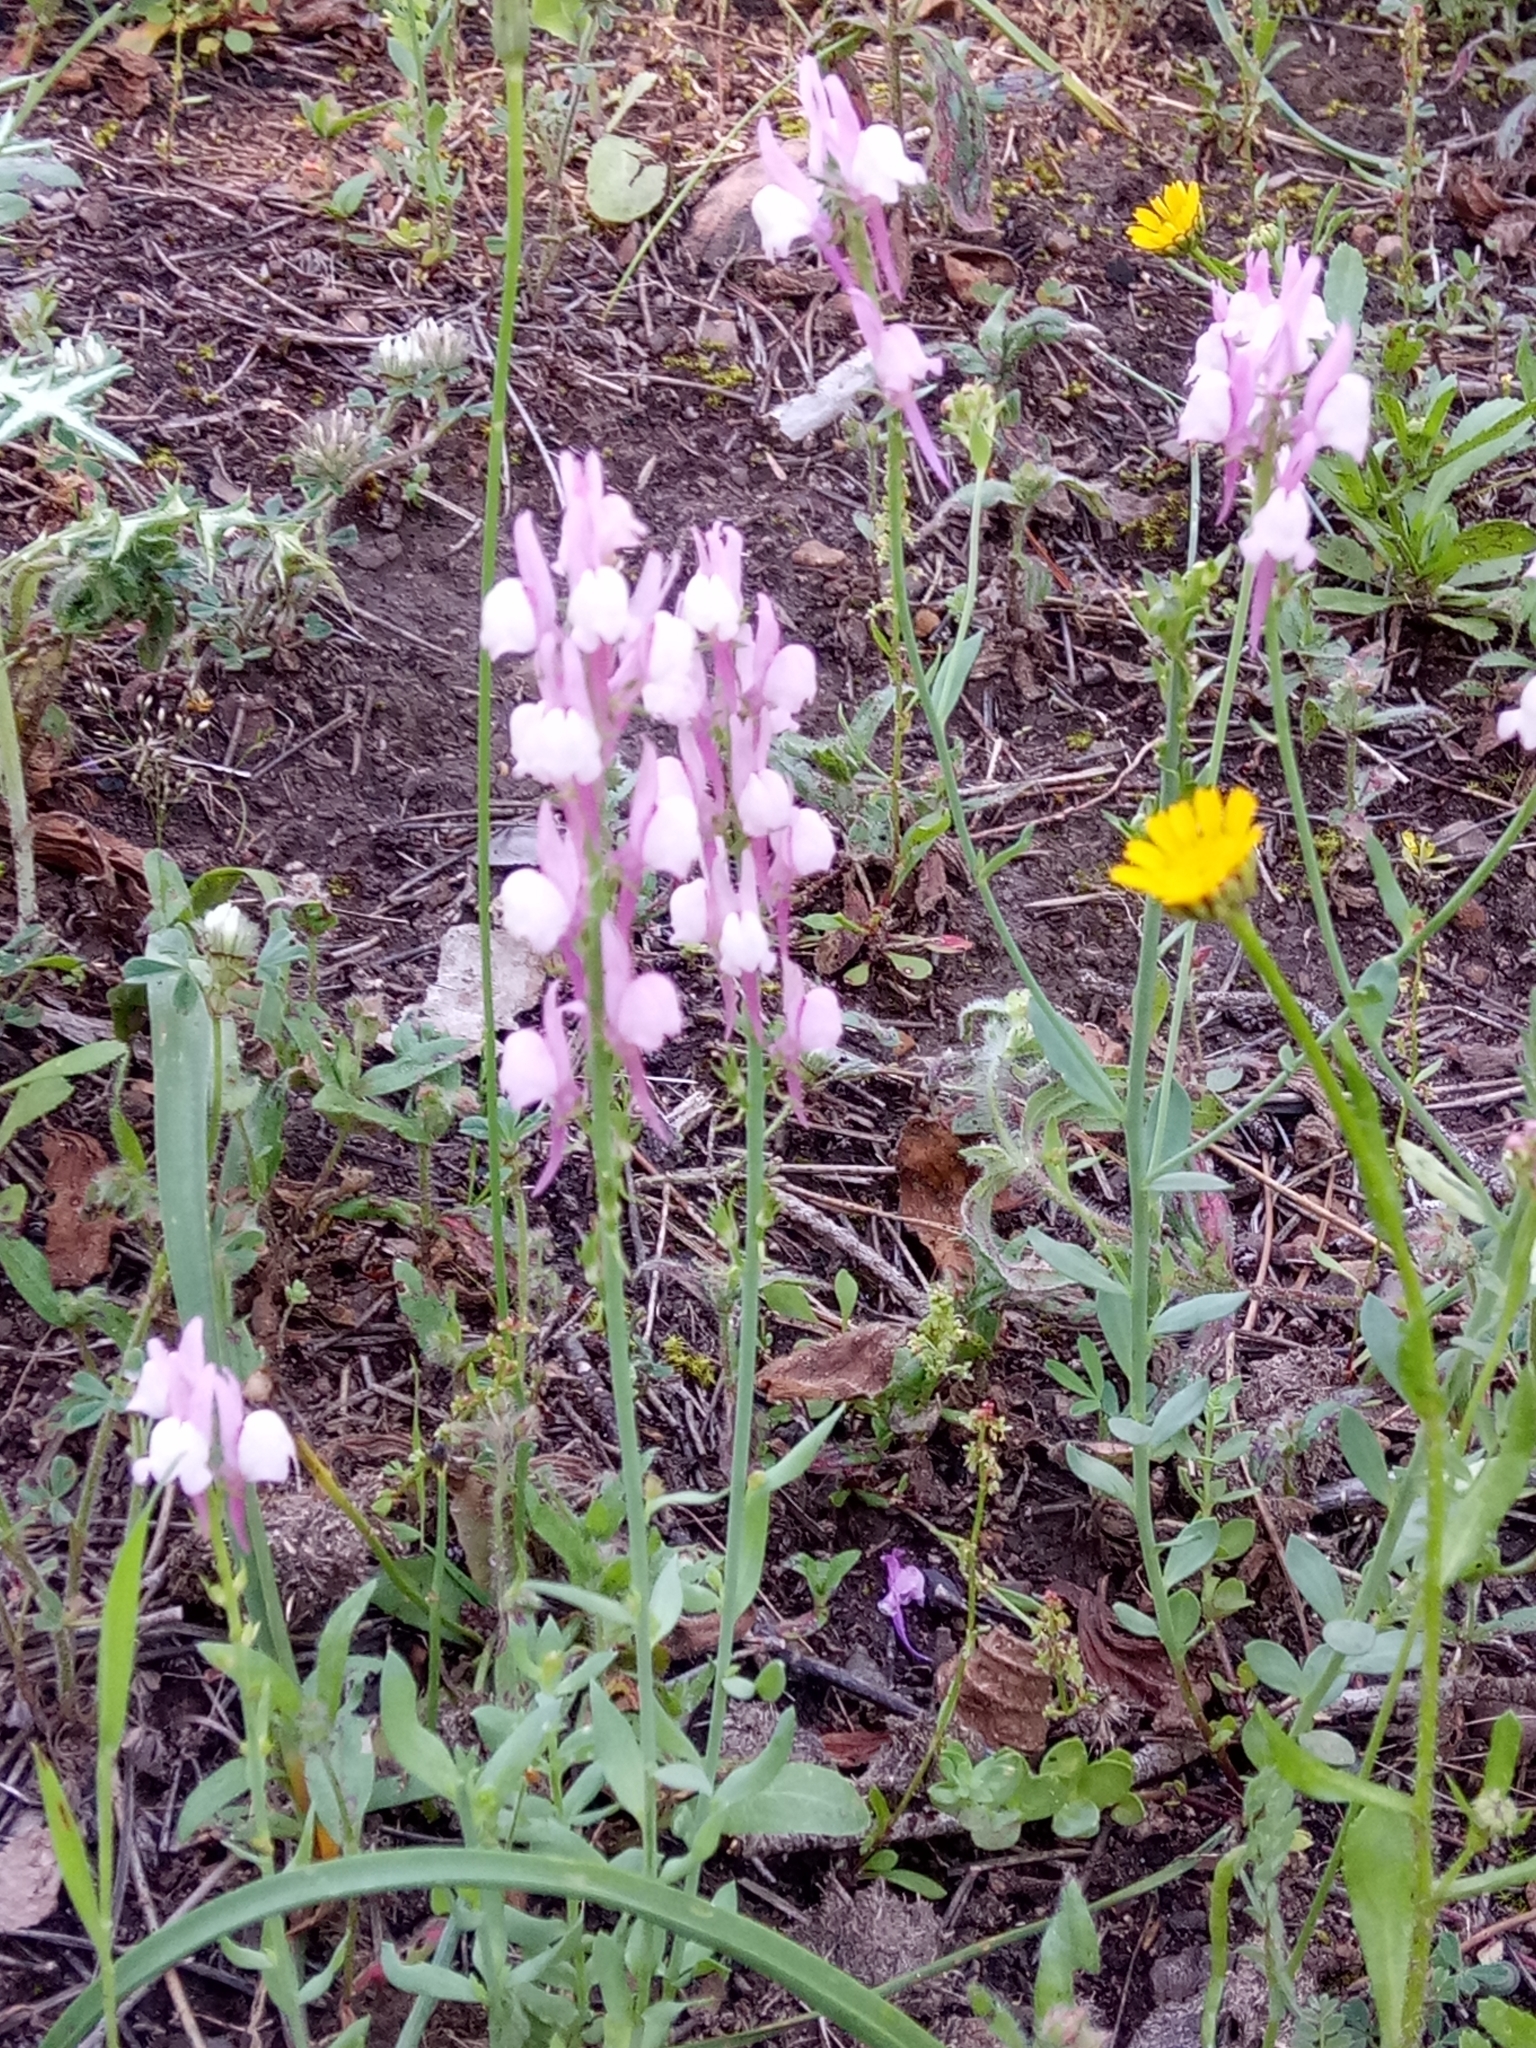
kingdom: Plantae
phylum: Tracheophyta
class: Magnoliopsida
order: Lamiales
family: Plantaginaceae
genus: Linaria
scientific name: Linaria virgata
